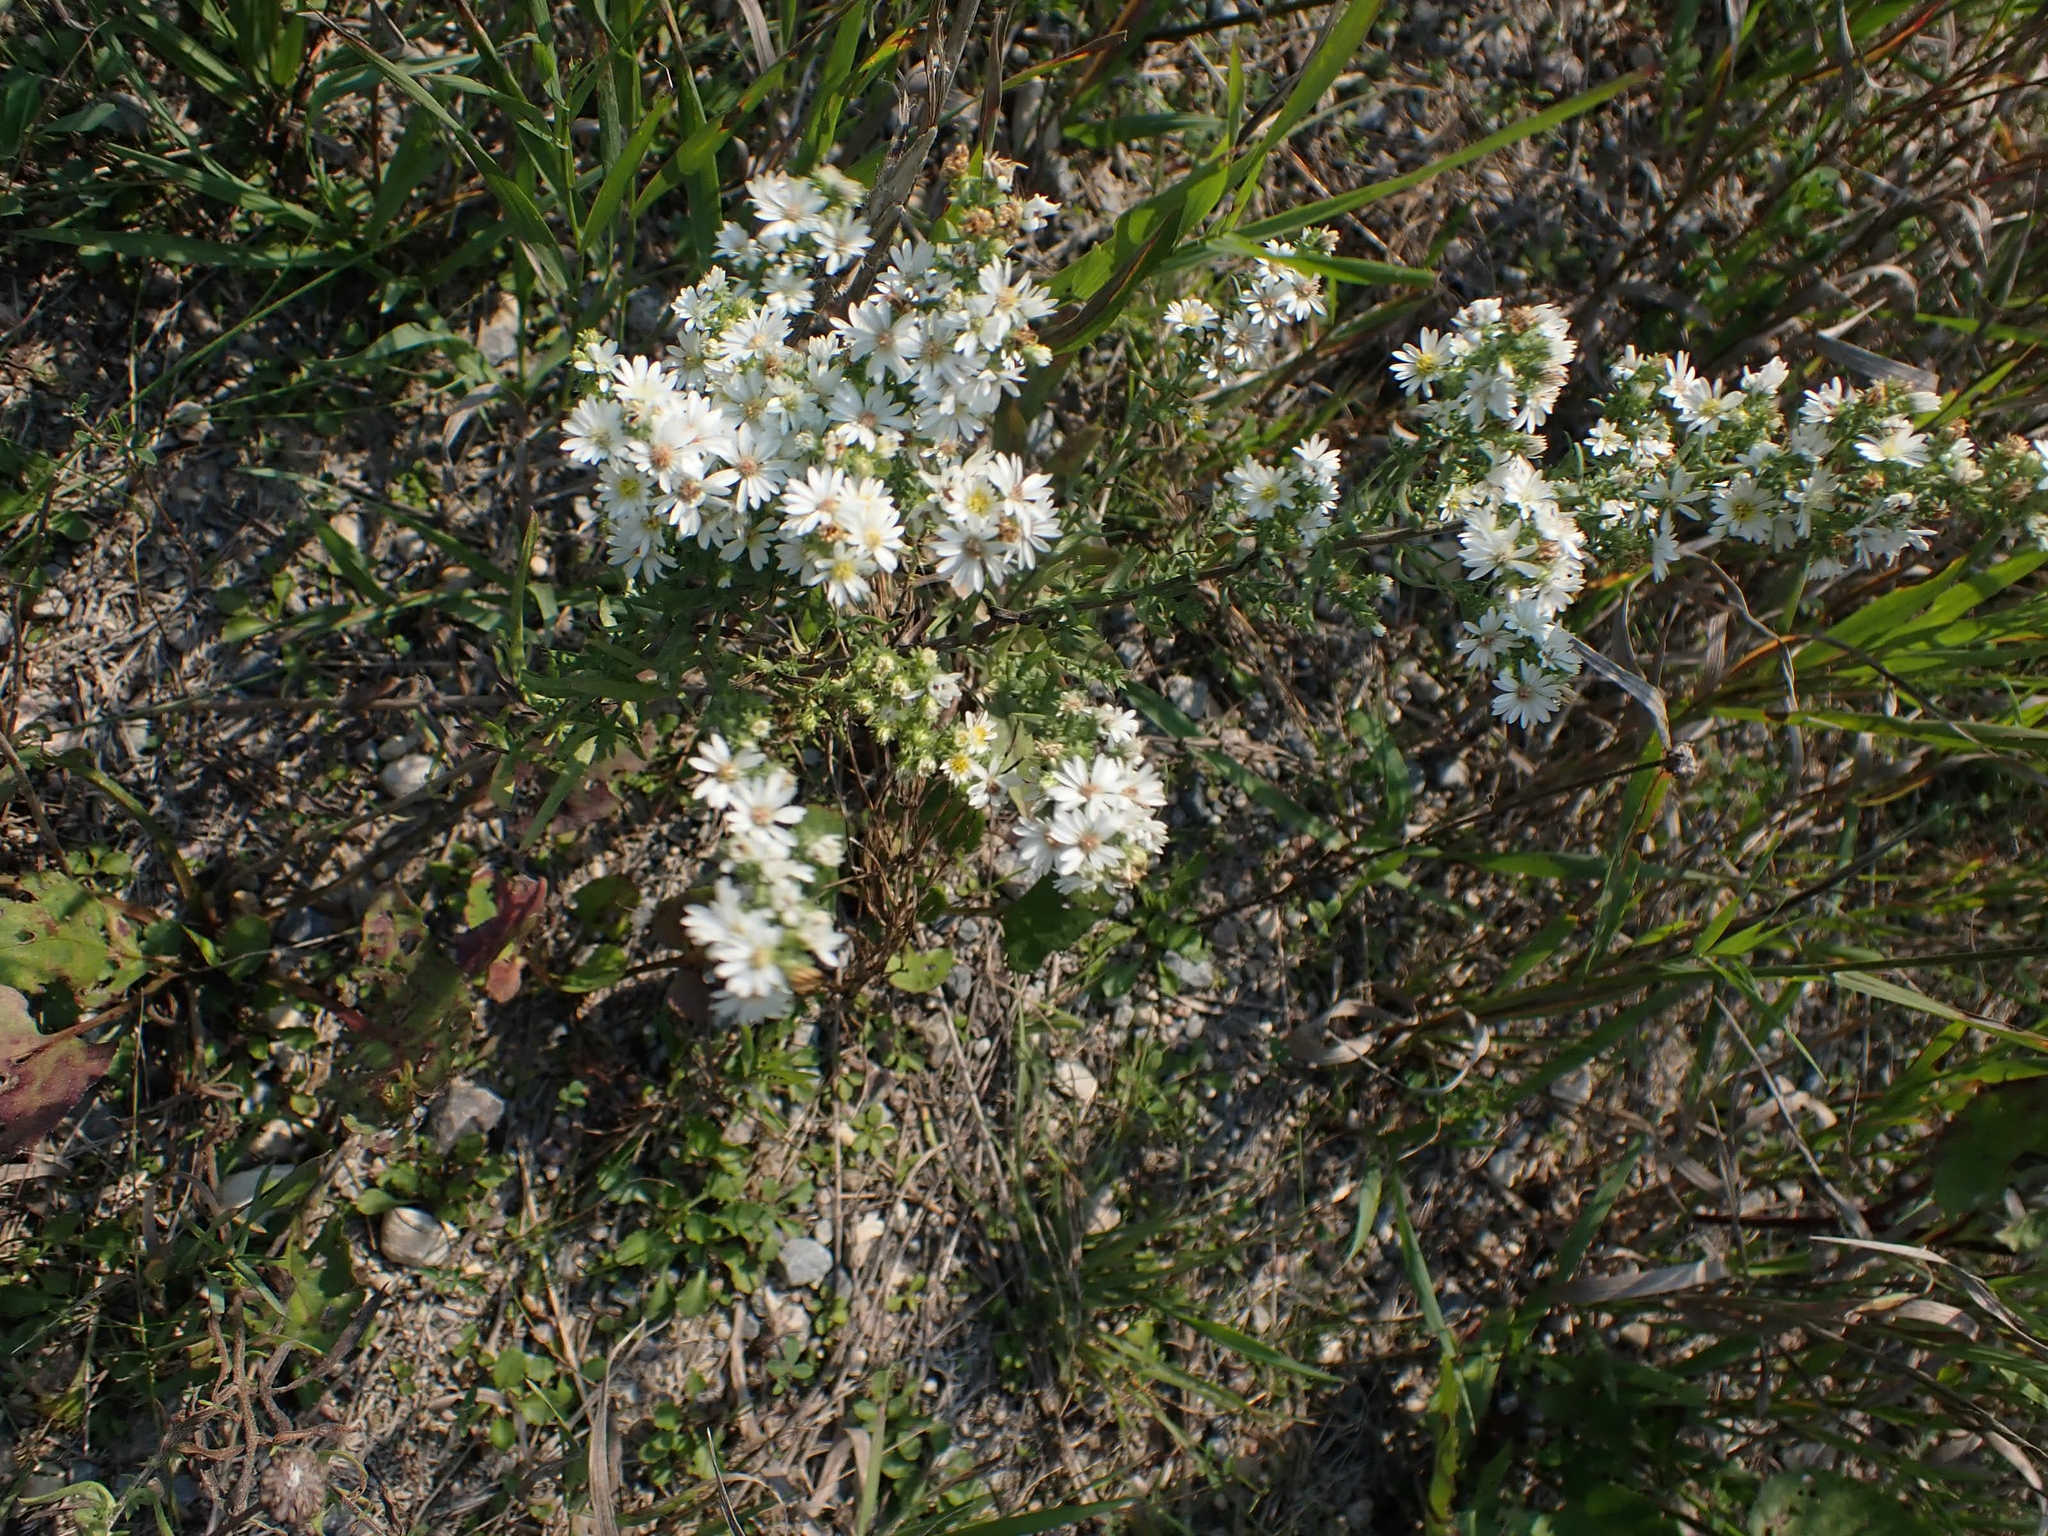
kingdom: Plantae
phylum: Tracheophyta
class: Magnoliopsida
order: Asterales
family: Asteraceae
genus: Symphyotrichum
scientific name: Symphyotrichum ericoides
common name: Heath aster
